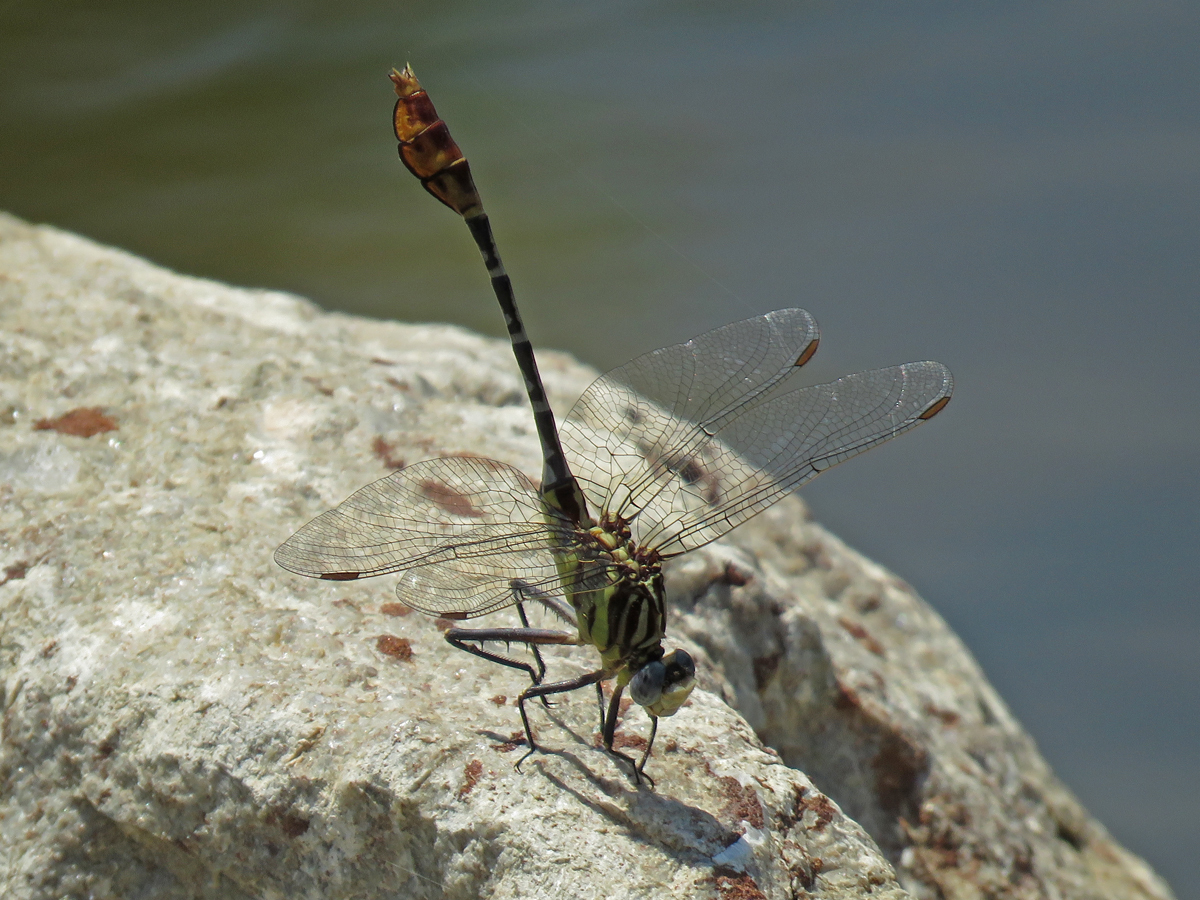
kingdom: Animalia
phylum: Arthropoda
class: Insecta
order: Odonata
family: Gomphidae
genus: Dromogomphus
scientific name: Dromogomphus spoliatus
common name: Flag-tailed spinyleg
